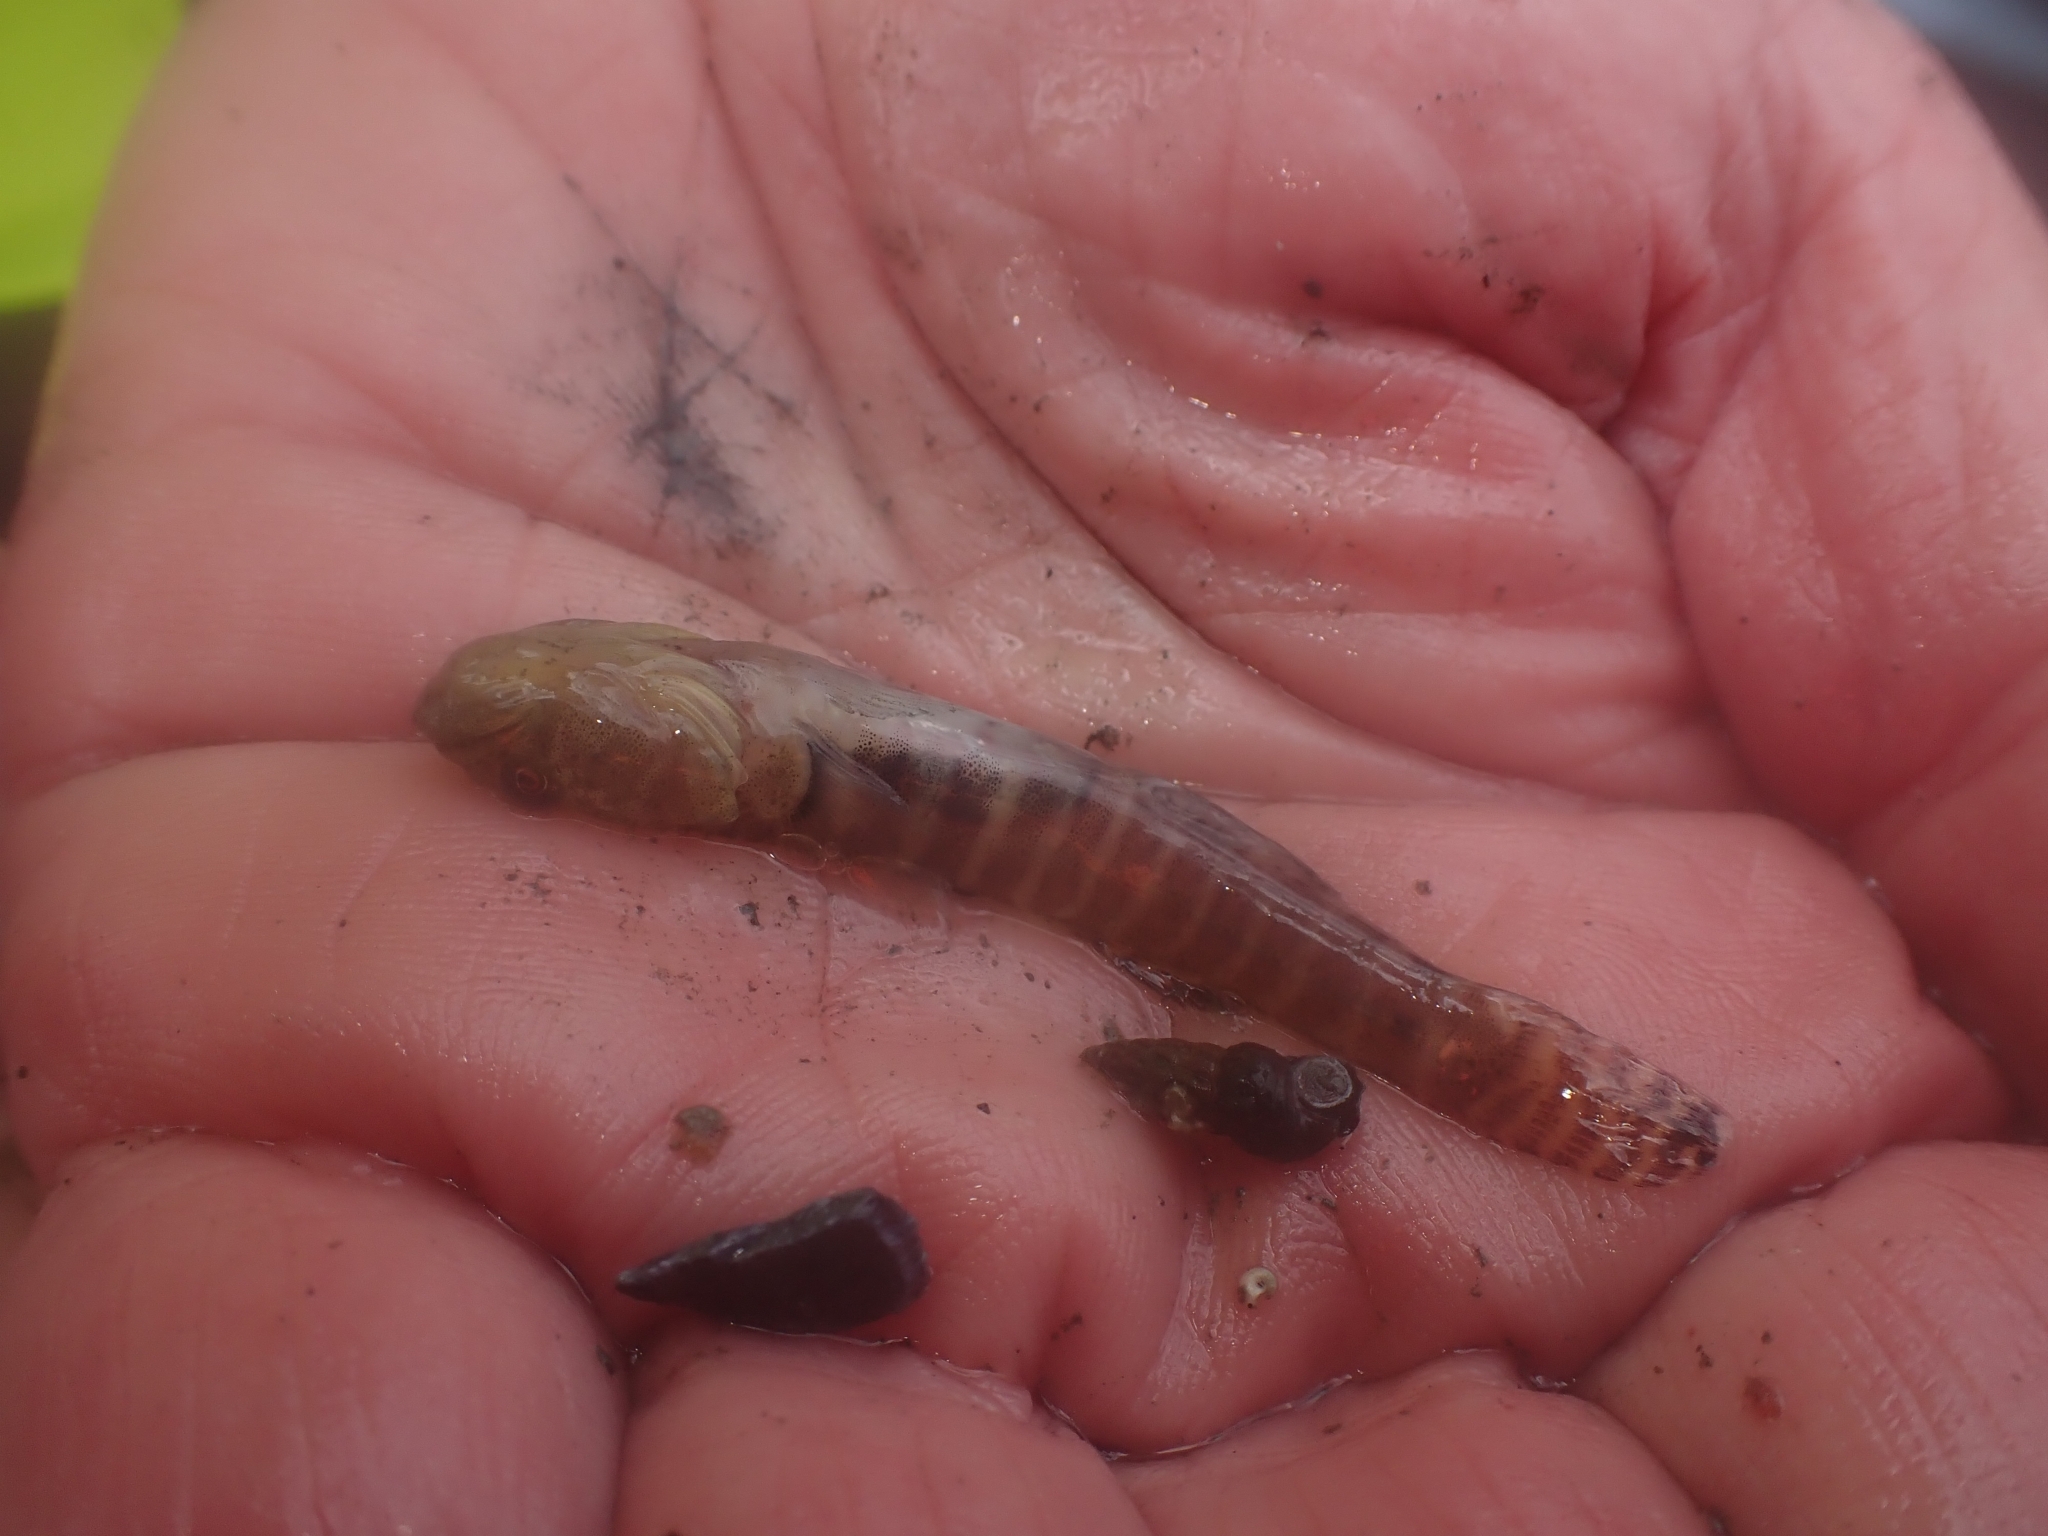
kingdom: Animalia
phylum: Chordata
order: Perciformes
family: Thalasseleotrididae
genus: Grahamichthys
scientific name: Grahamichthys radiata
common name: Graham's gudgeon
